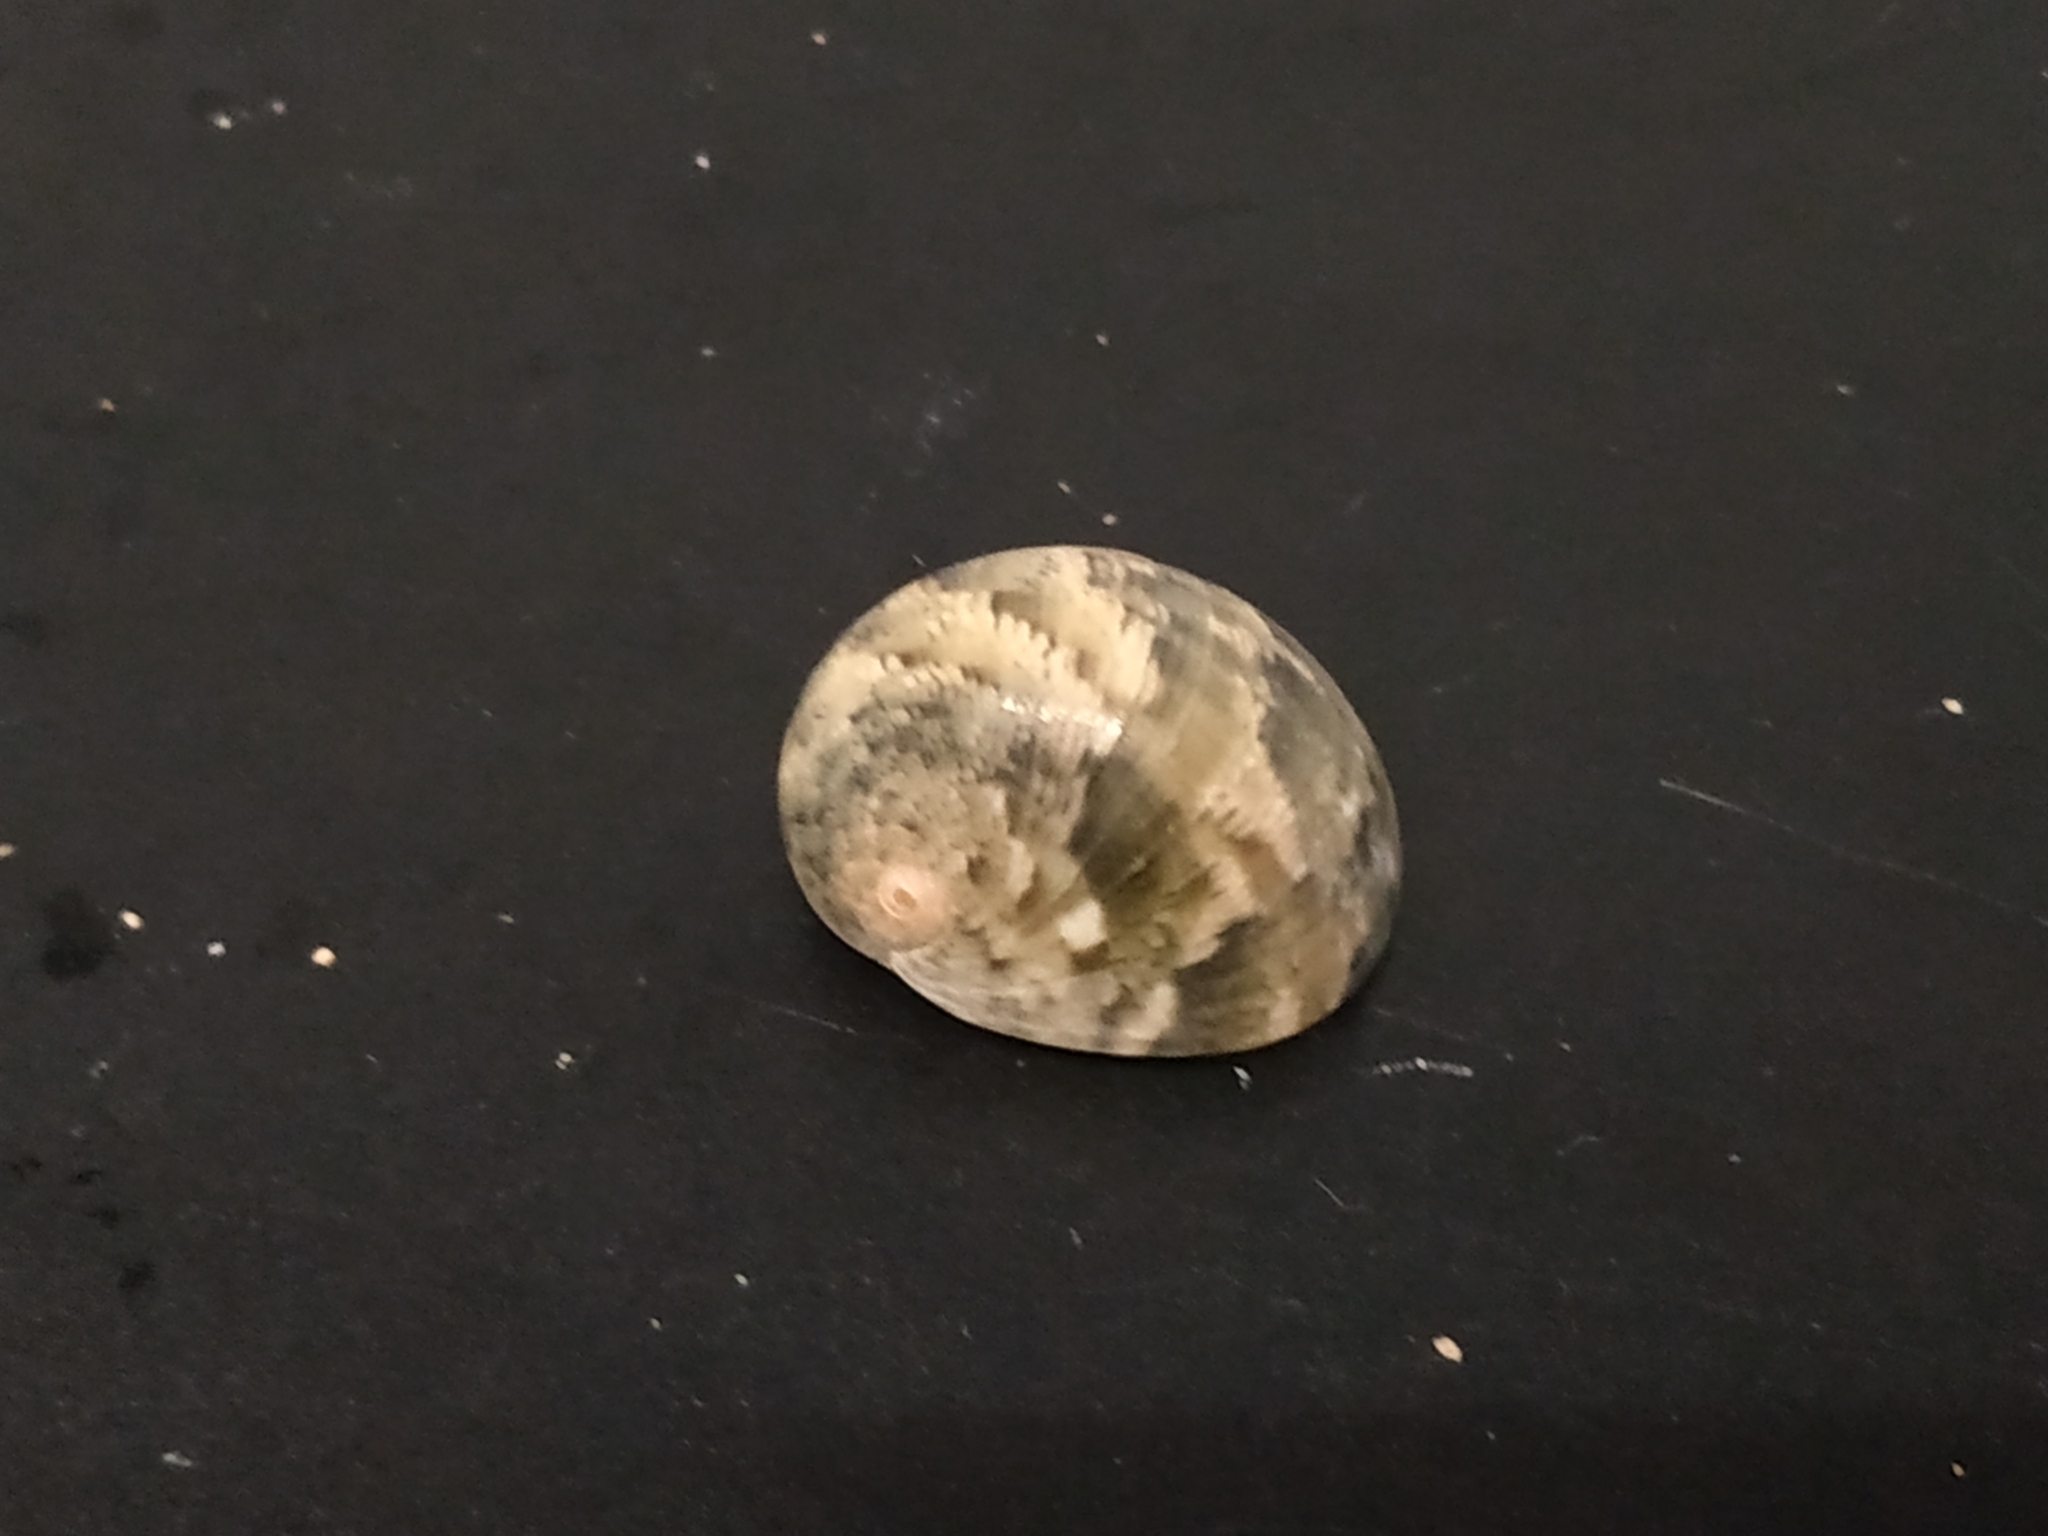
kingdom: Animalia
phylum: Mollusca
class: Gastropoda
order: Cycloneritida
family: Neritidae
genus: Nerita
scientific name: Nerita polita
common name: Polished nerite
